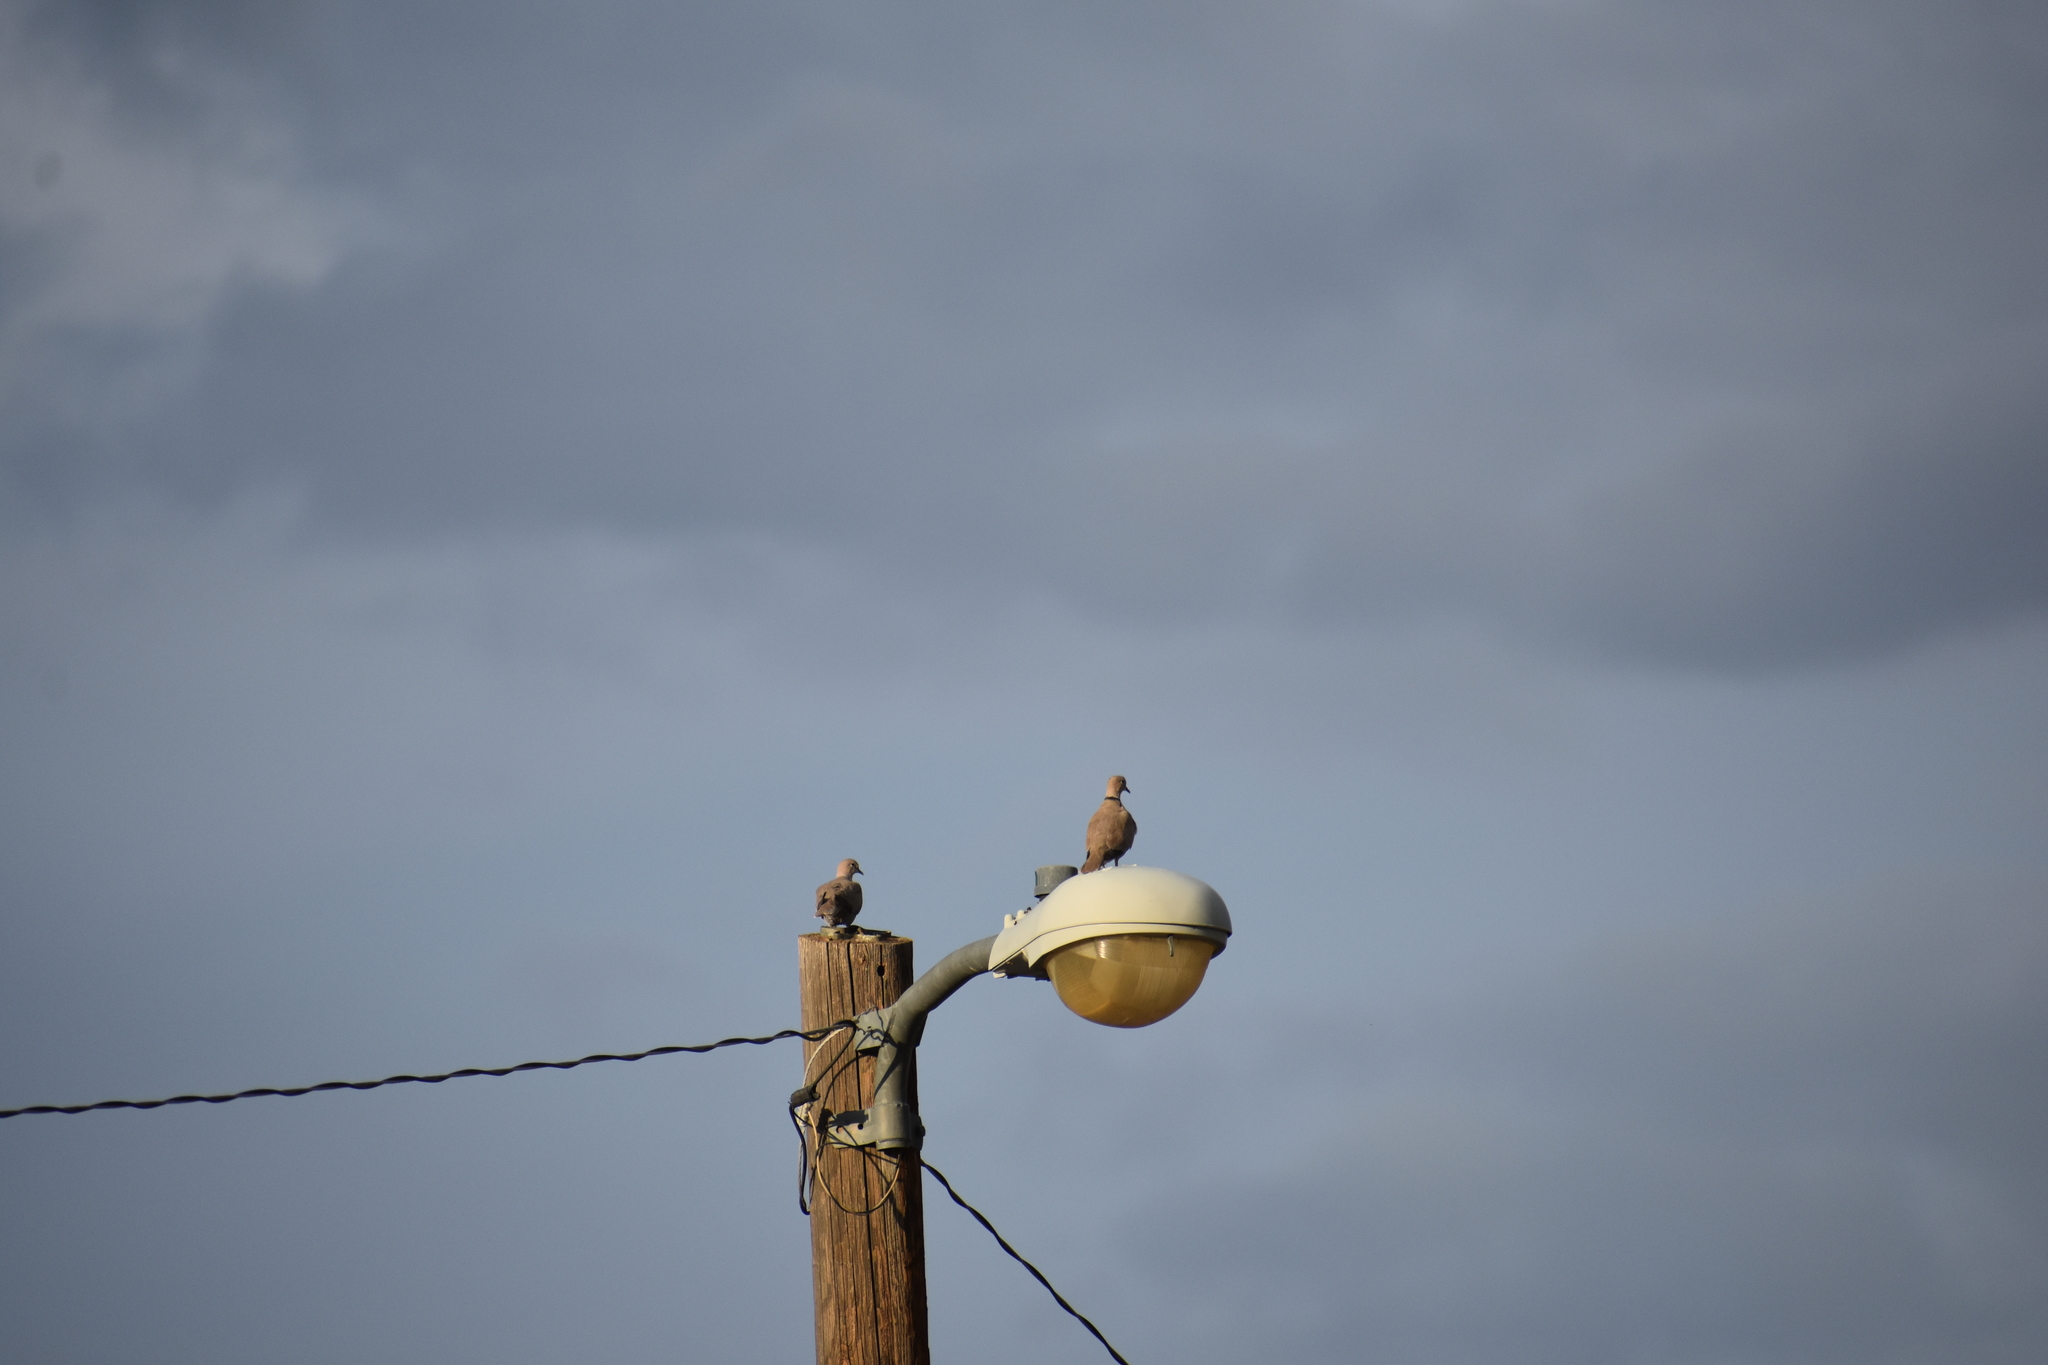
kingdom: Animalia
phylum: Chordata
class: Aves
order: Columbiformes
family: Columbidae
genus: Streptopelia
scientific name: Streptopelia decaocto
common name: Eurasian collared dove
